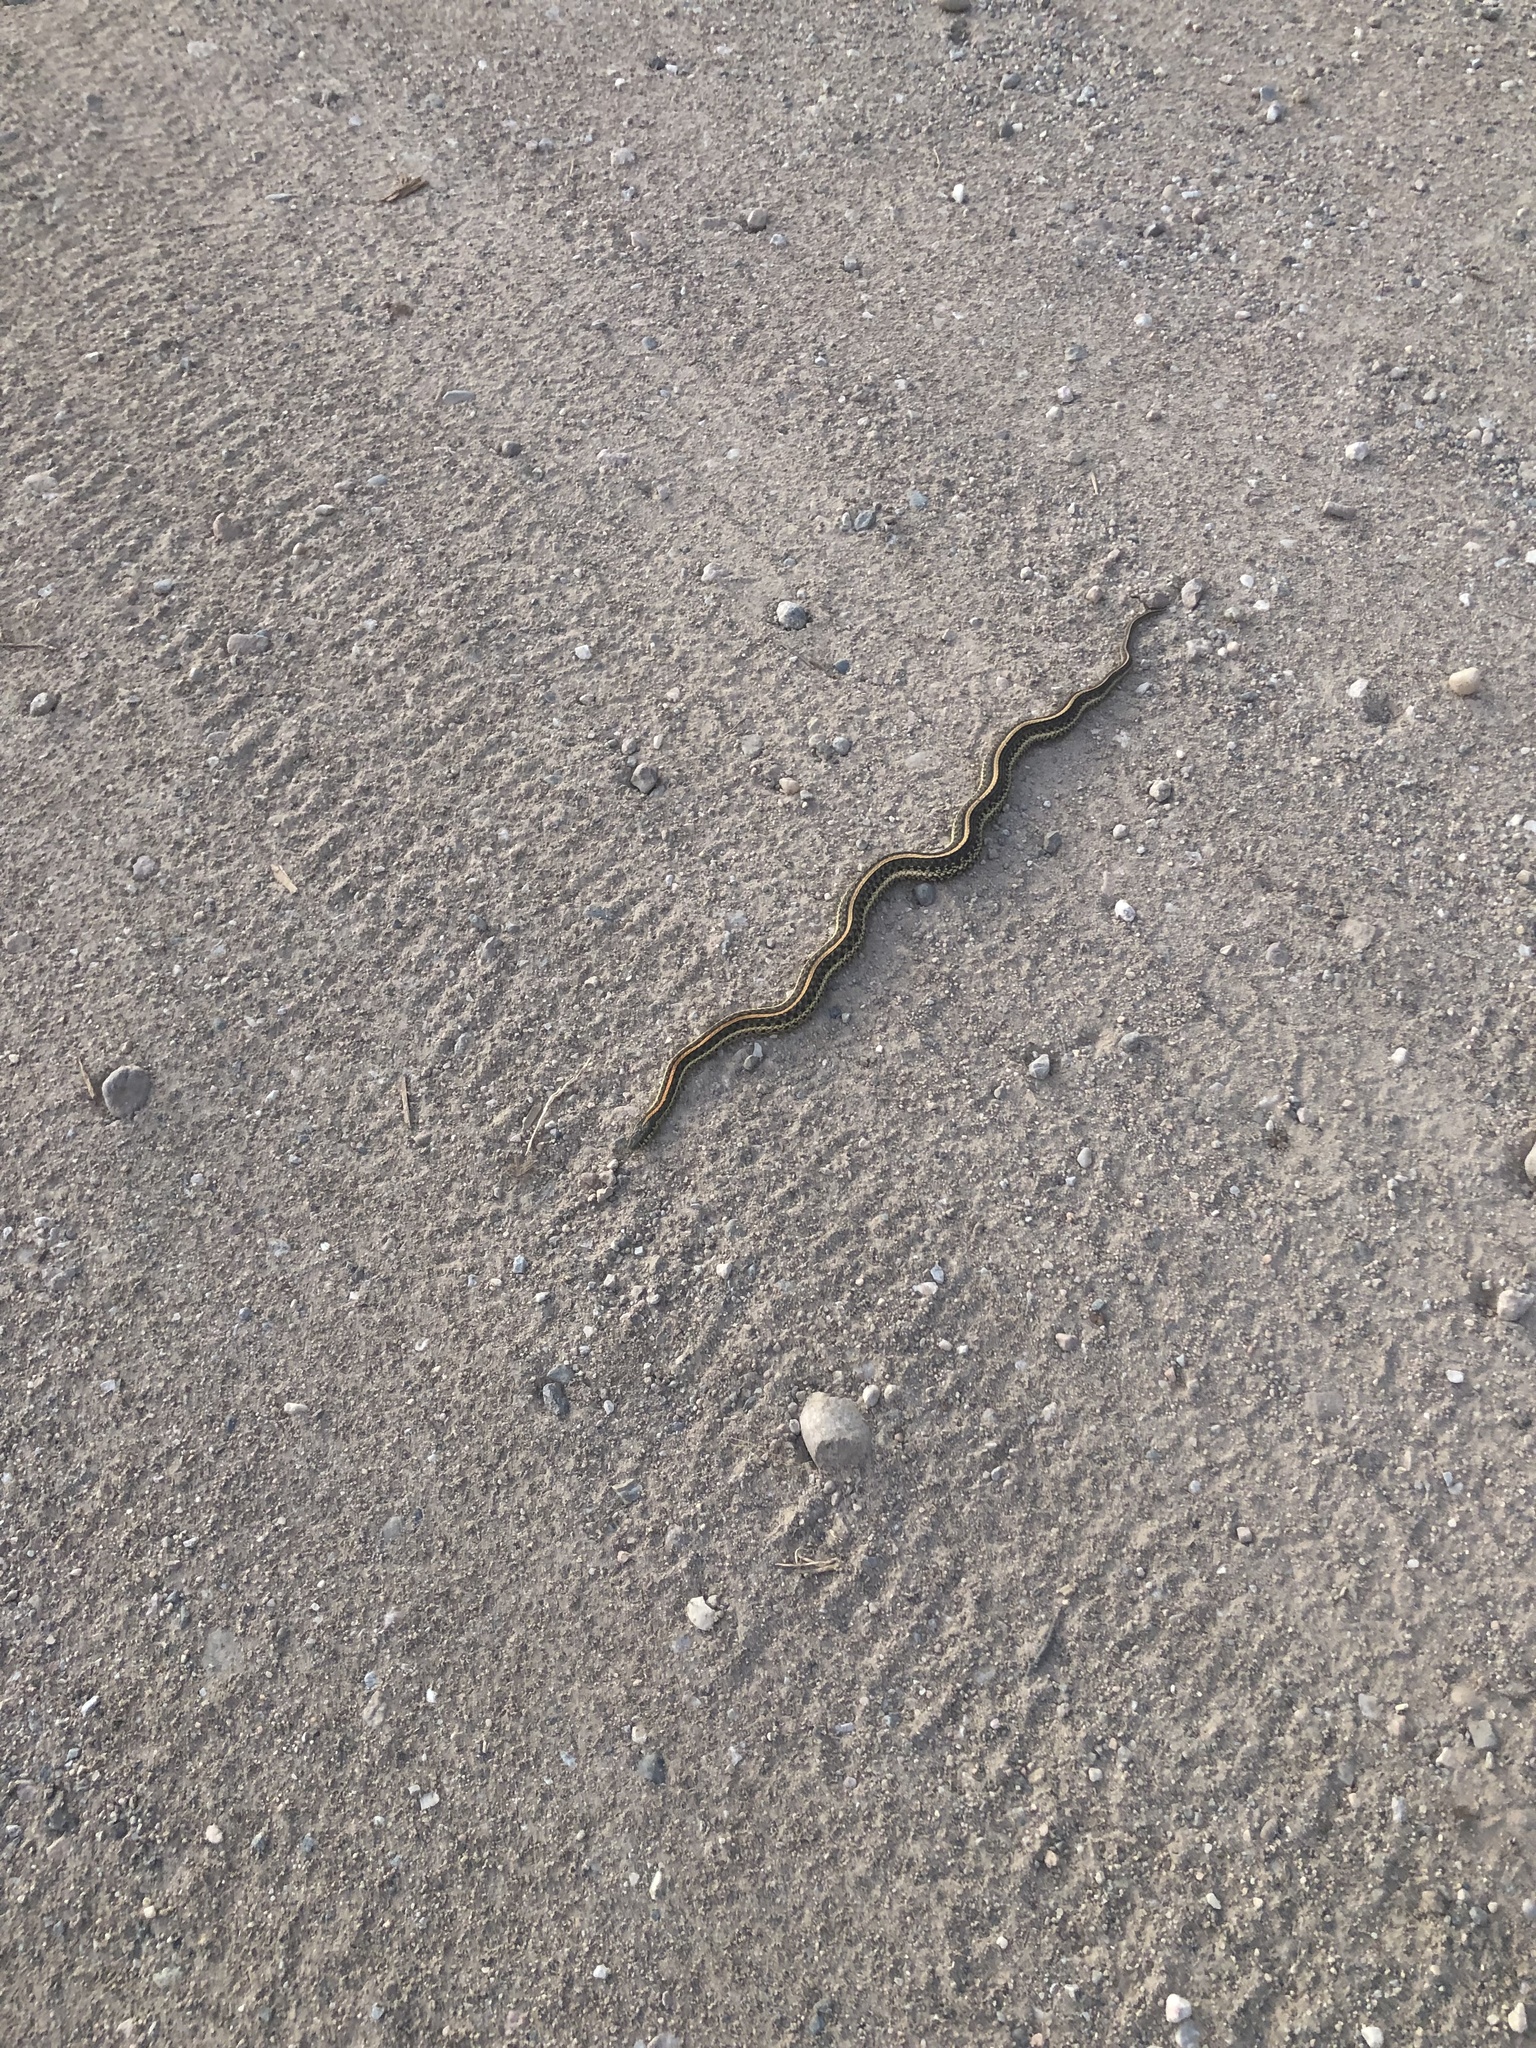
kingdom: Animalia
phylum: Chordata
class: Squamata
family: Colubridae
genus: Thamnophis
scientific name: Thamnophis radix
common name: Plains garter snake
